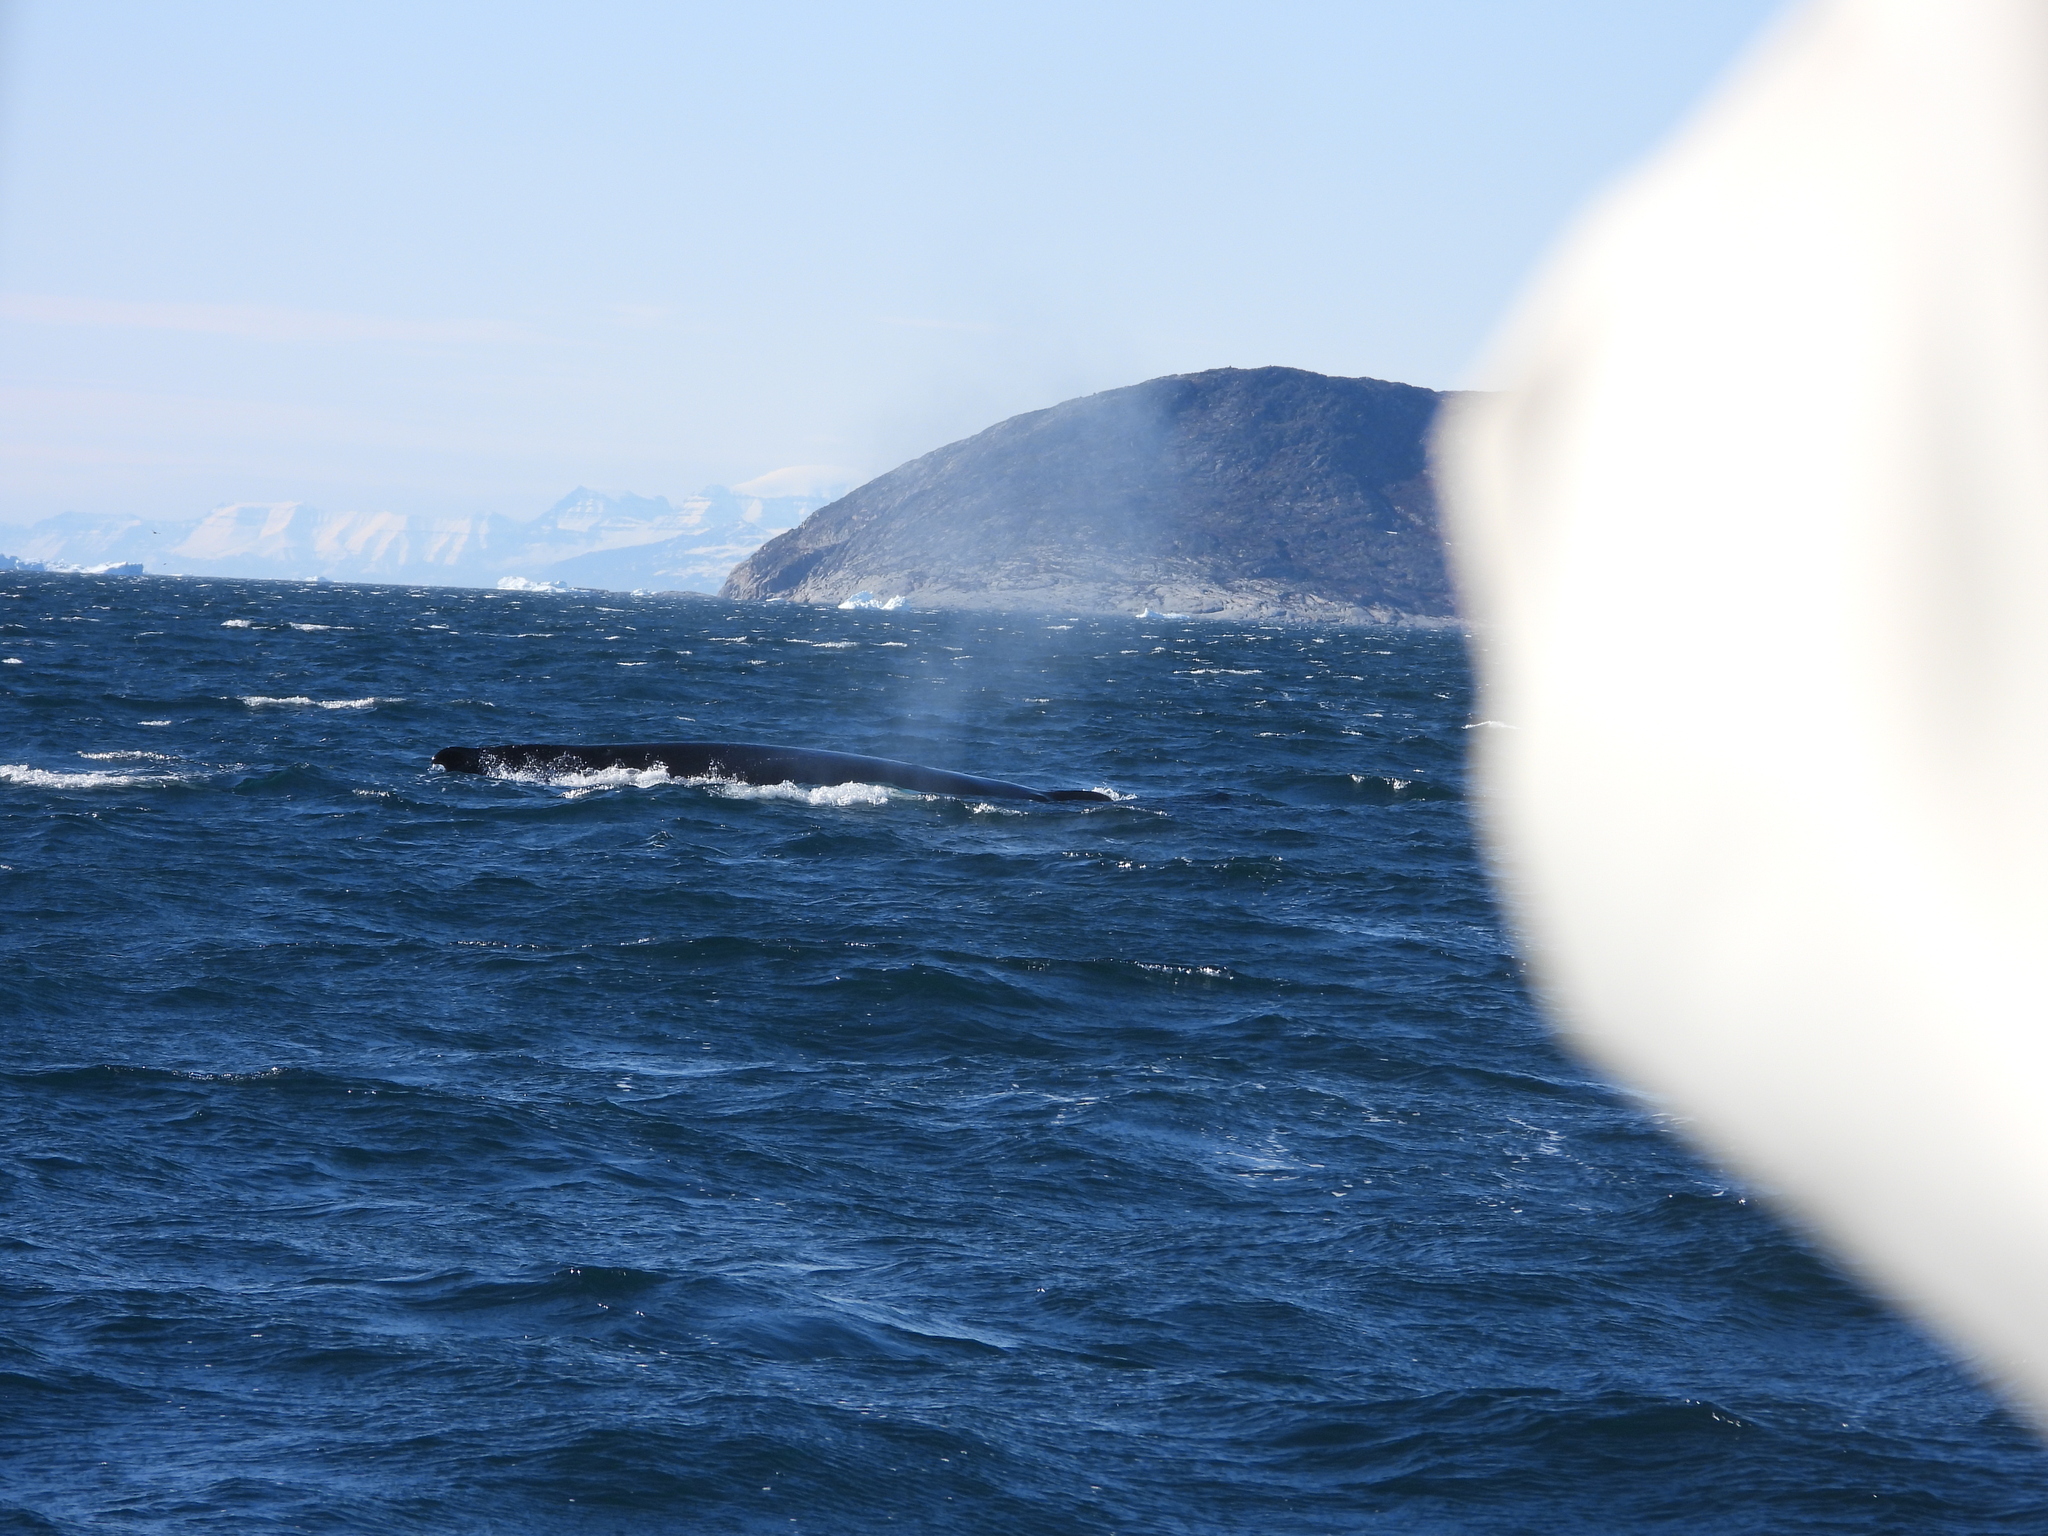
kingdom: Animalia
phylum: Chordata
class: Mammalia
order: Cetacea
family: Balaenopteridae
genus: Megaptera
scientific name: Megaptera novaeangliae
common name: Humpback whale
